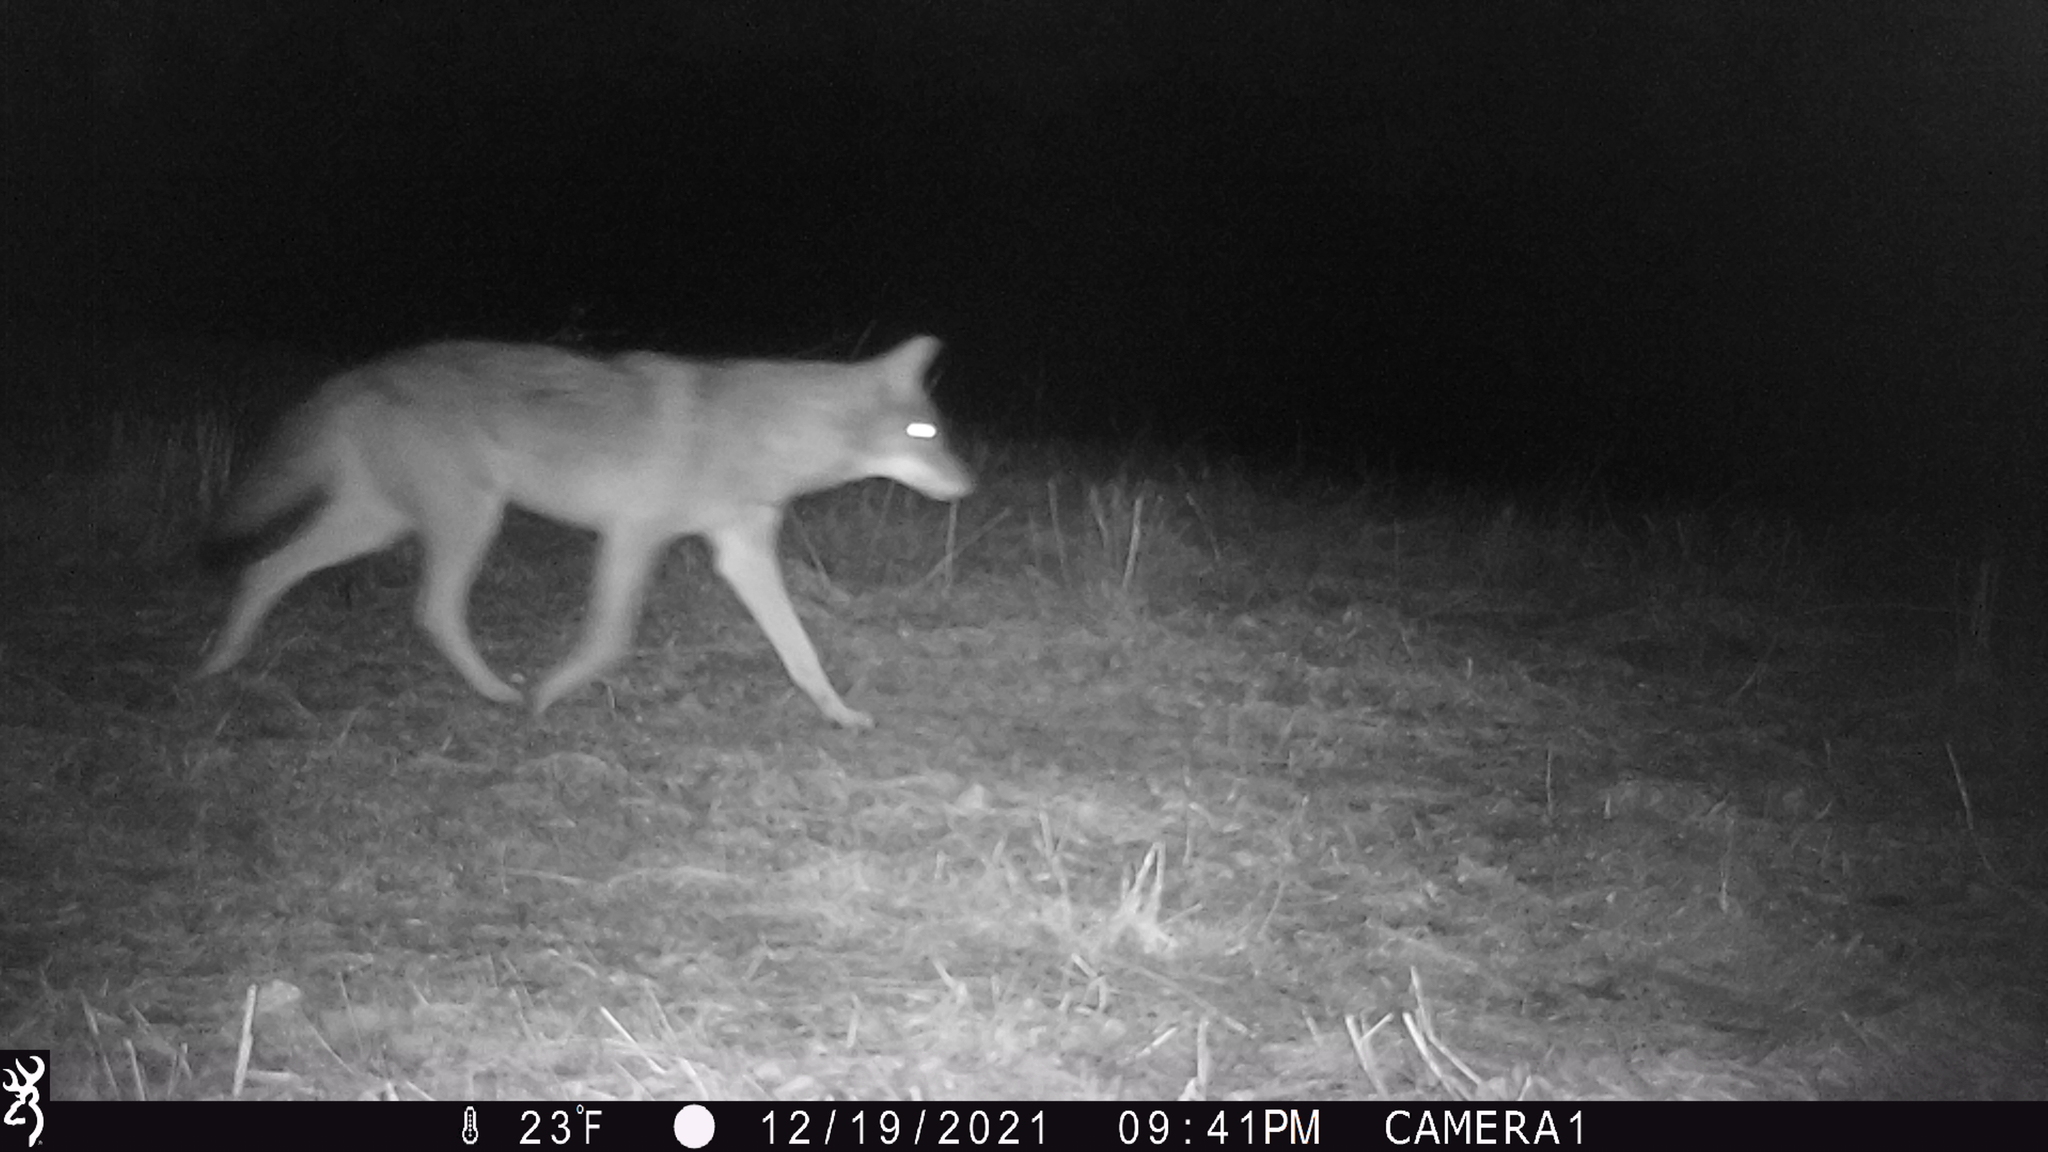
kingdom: Animalia
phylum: Chordata
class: Mammalia
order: Carnivora
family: Canidae
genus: Canis
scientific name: Canis latrans
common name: Coyote
